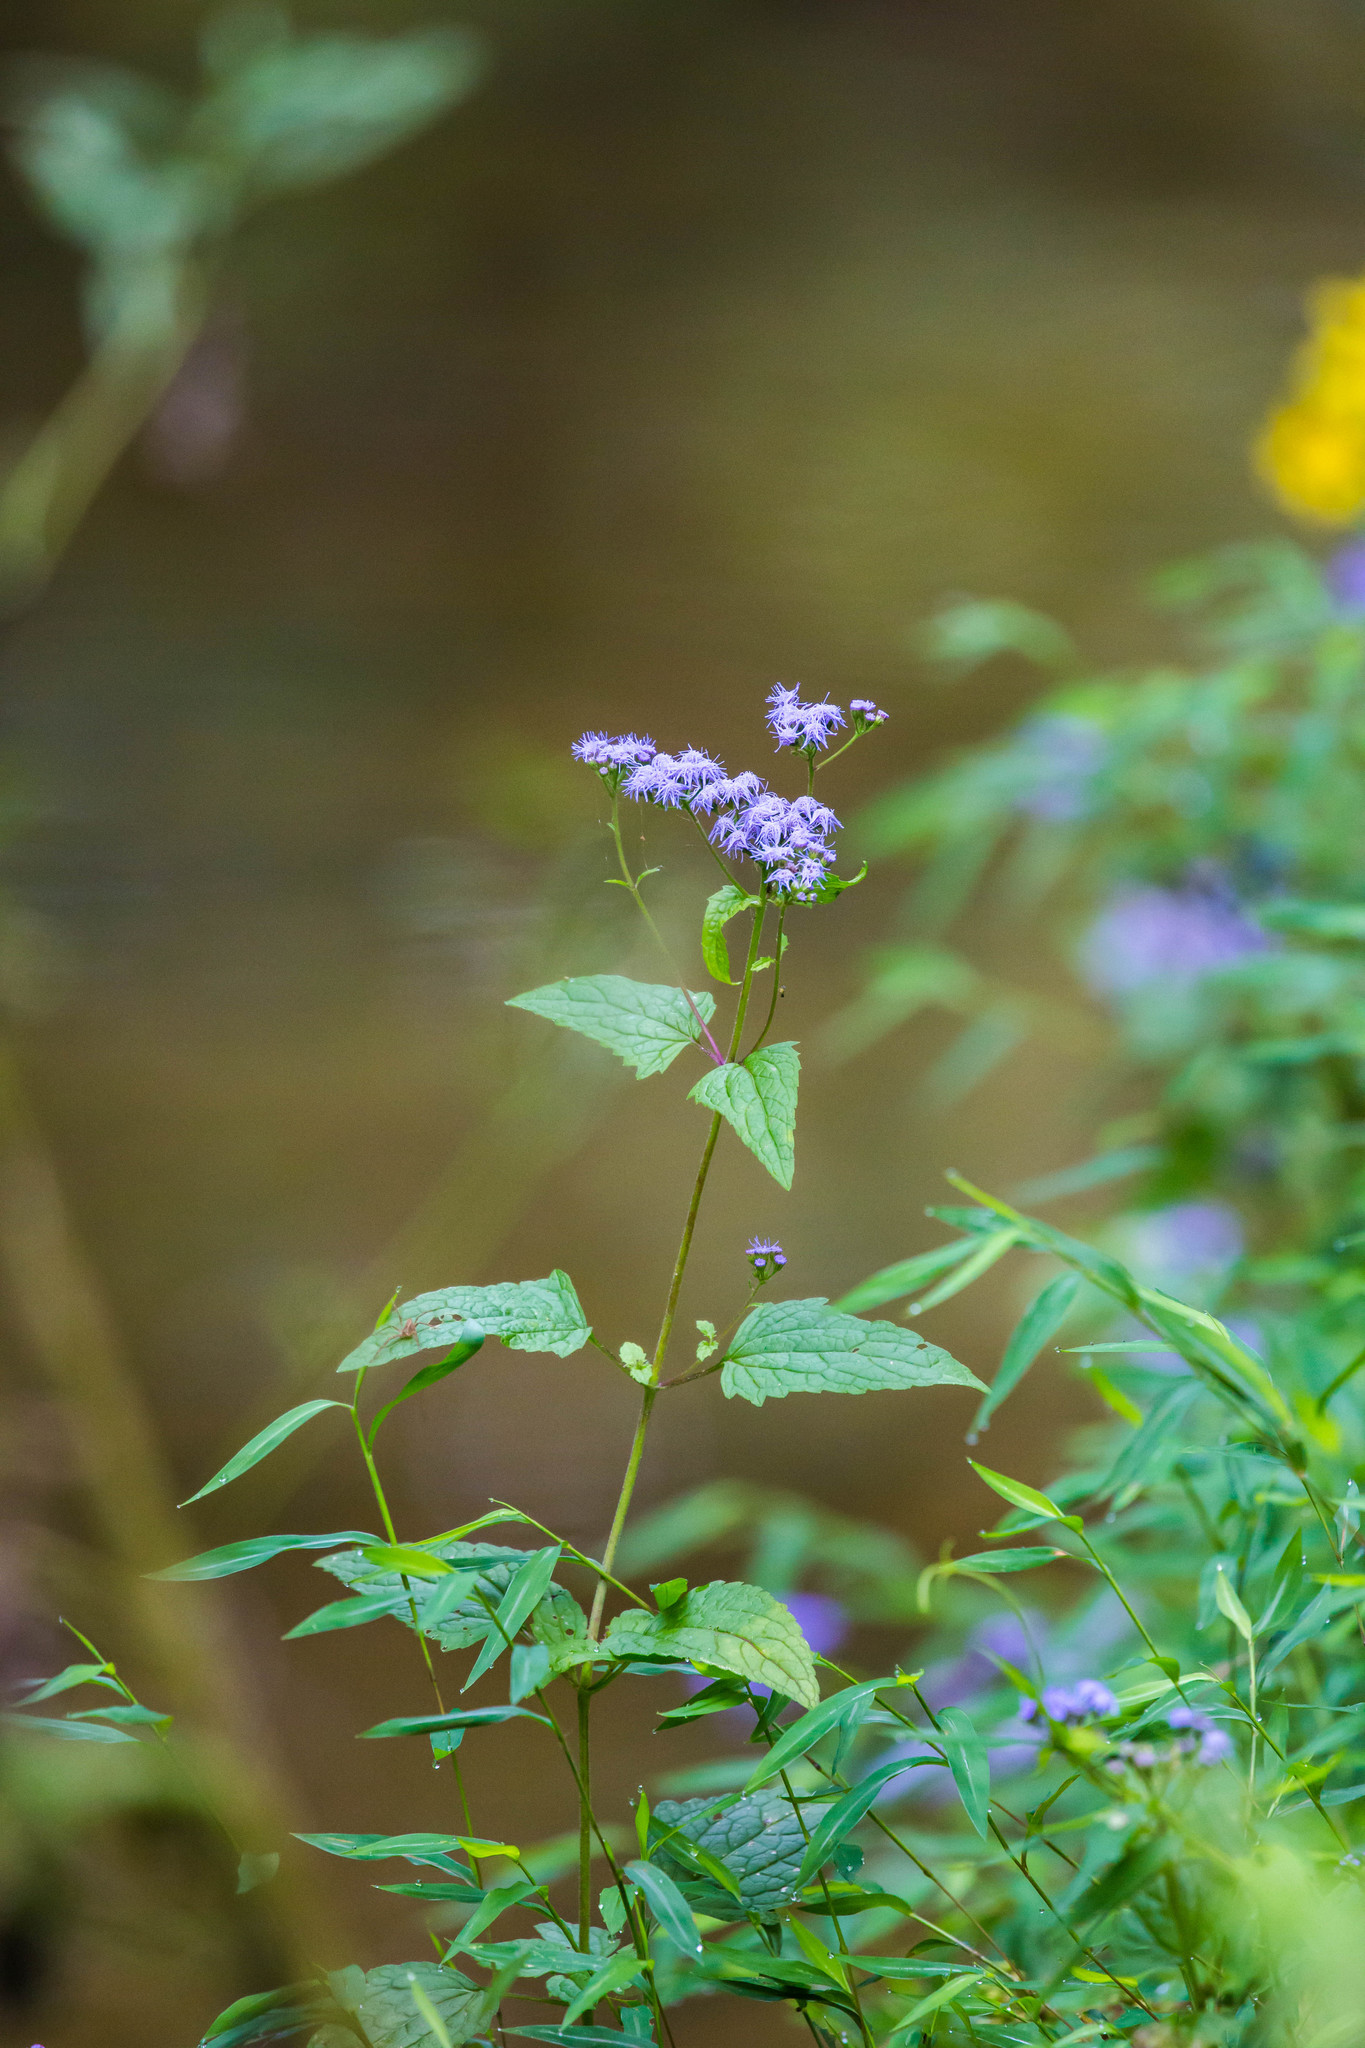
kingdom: Plantae
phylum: Tracheophyta
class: Magnoliopsida
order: Asterales
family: Asteraceae
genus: Conoclinium
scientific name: Conoclinium coelestinum
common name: Blue mistflower
